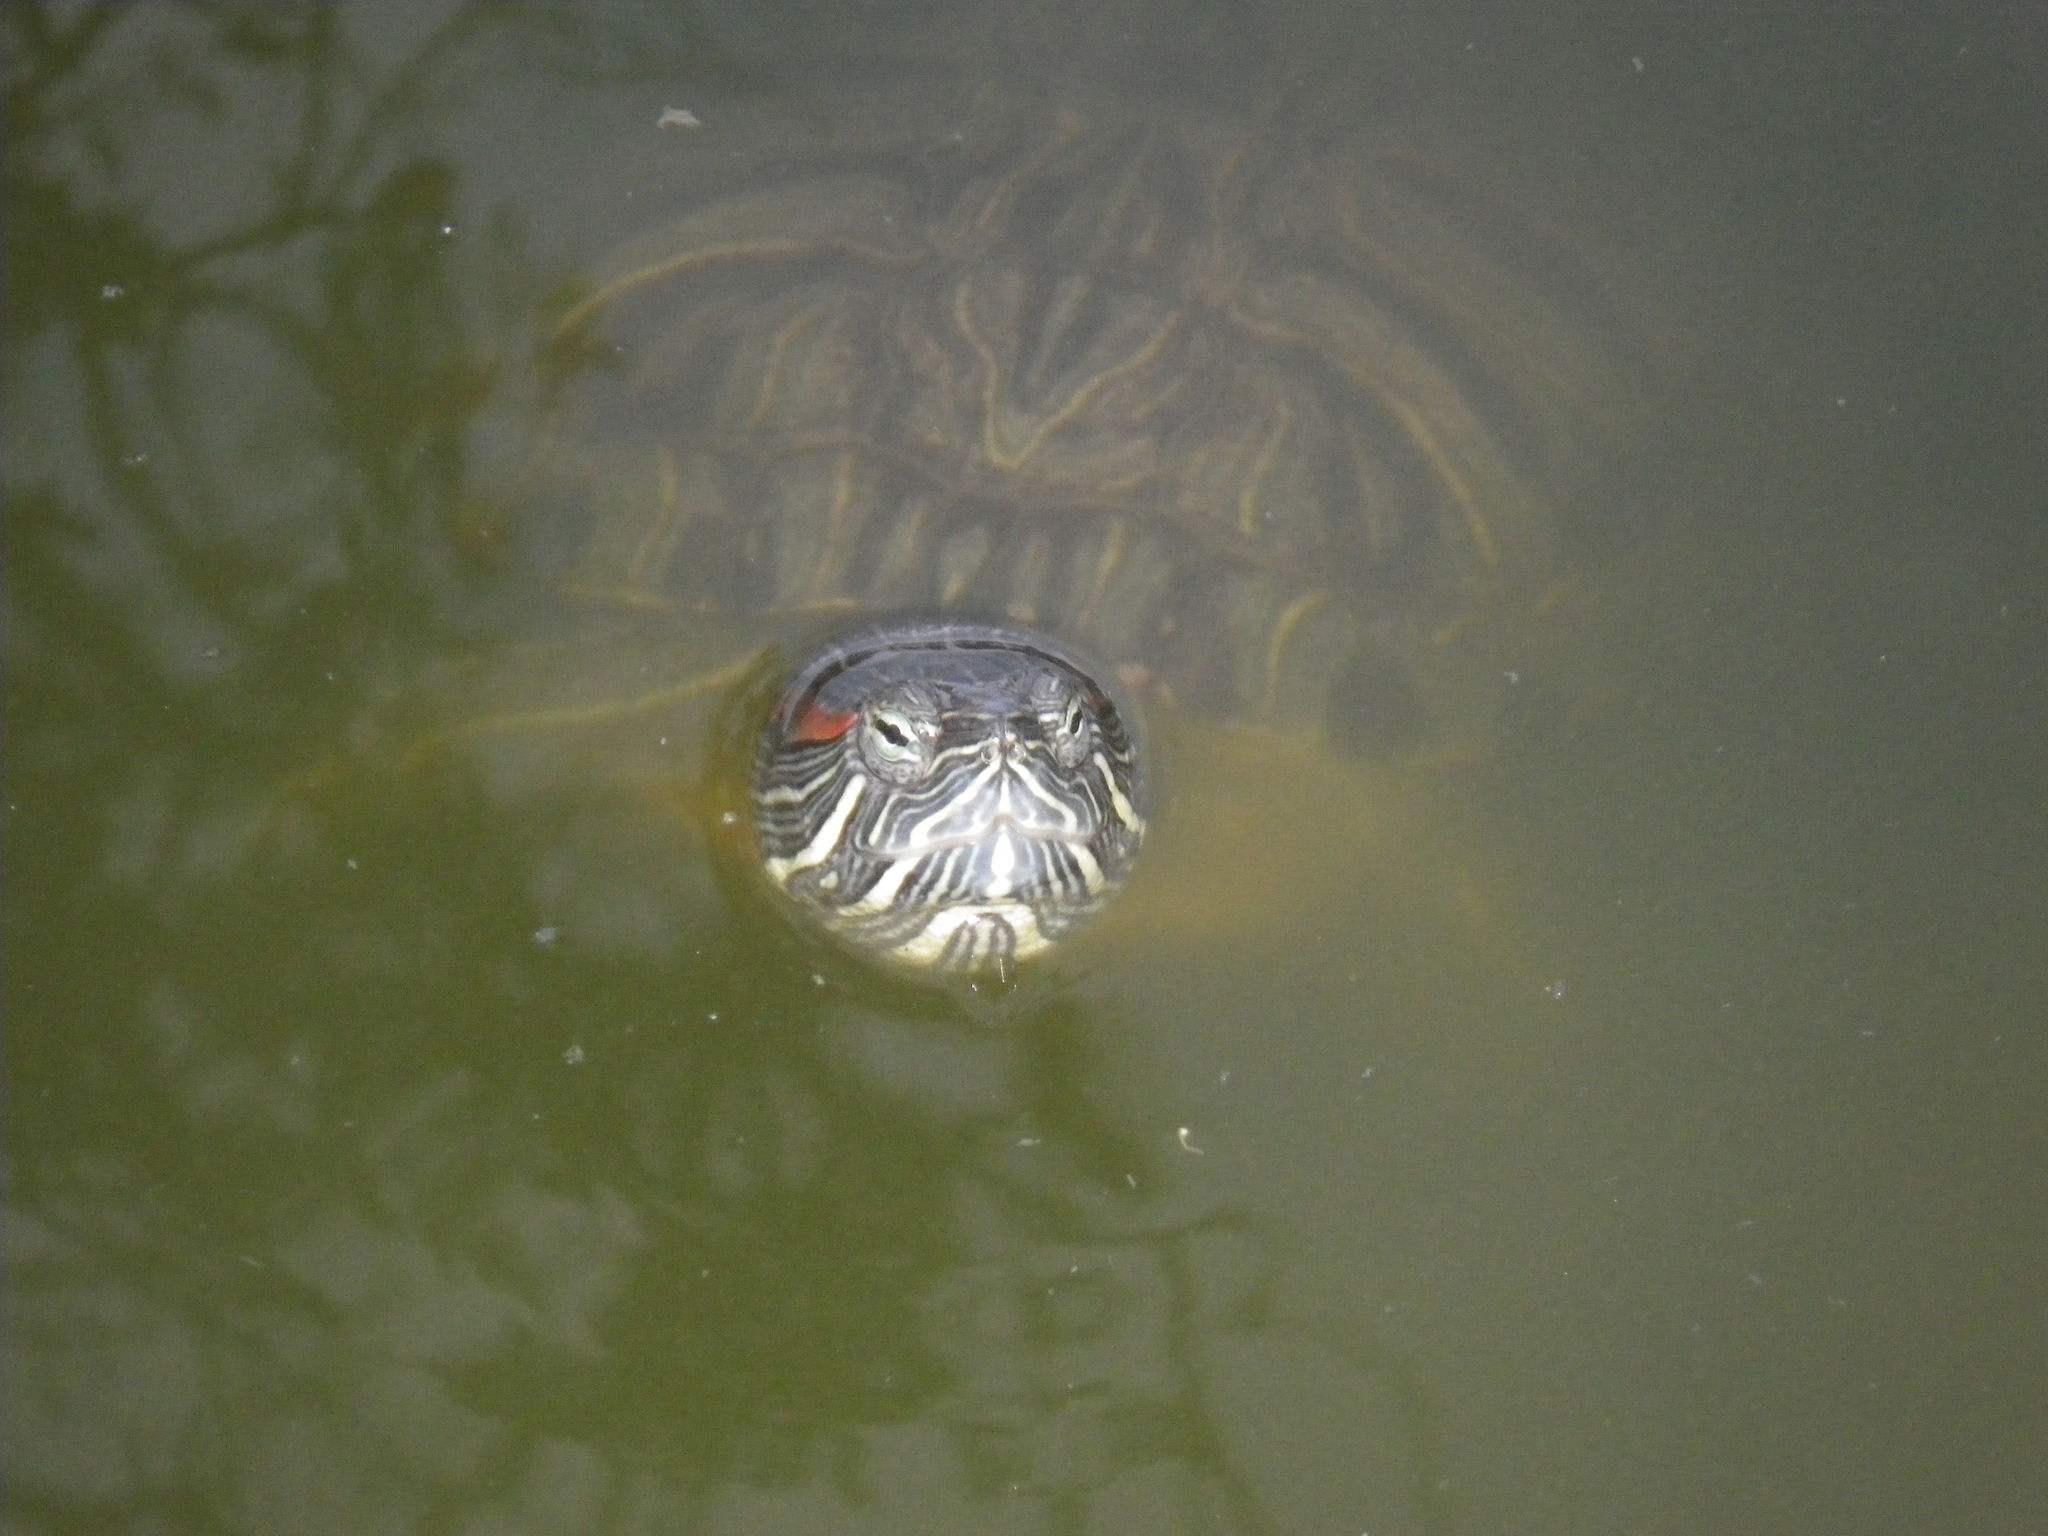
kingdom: Animalia
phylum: Chordata
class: Testudines
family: Emydidae
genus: Trachemys
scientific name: Trachemys scripta
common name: Slider
